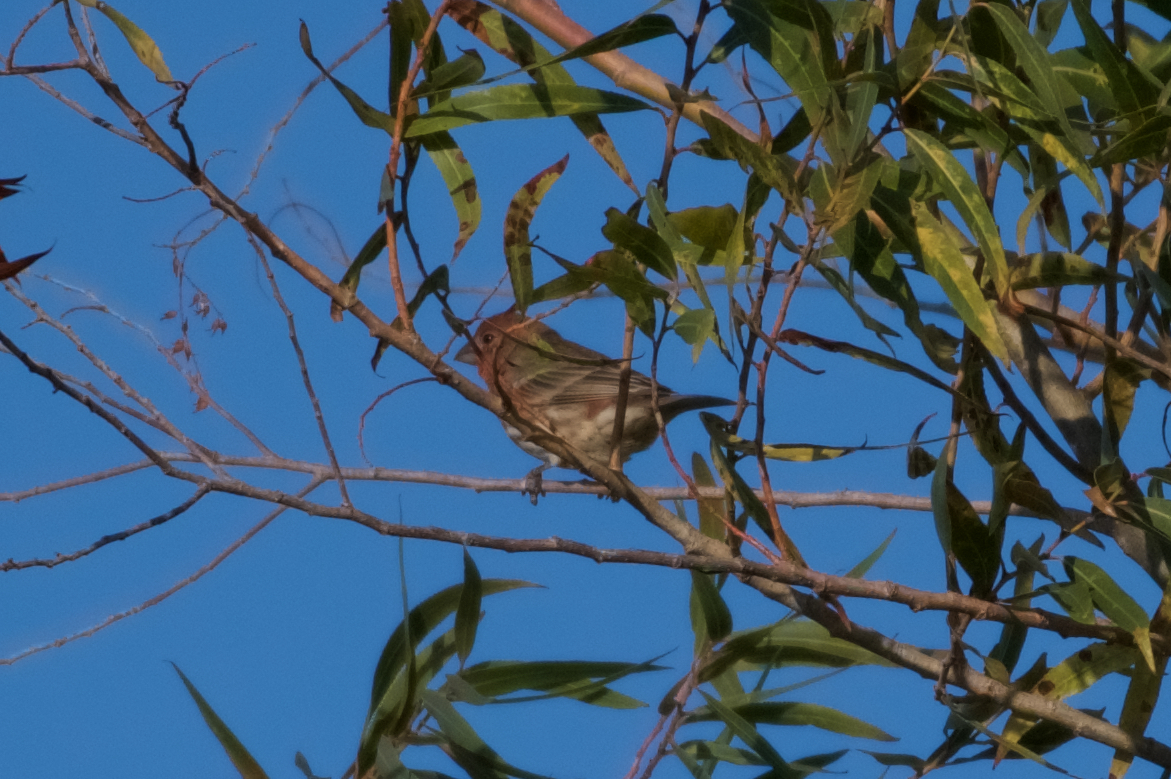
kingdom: Animalia
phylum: Chordata
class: Aves
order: Passeriformes
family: Fringillidae
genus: Haemorhous
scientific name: Haemorhous mexicanus
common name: House finch
